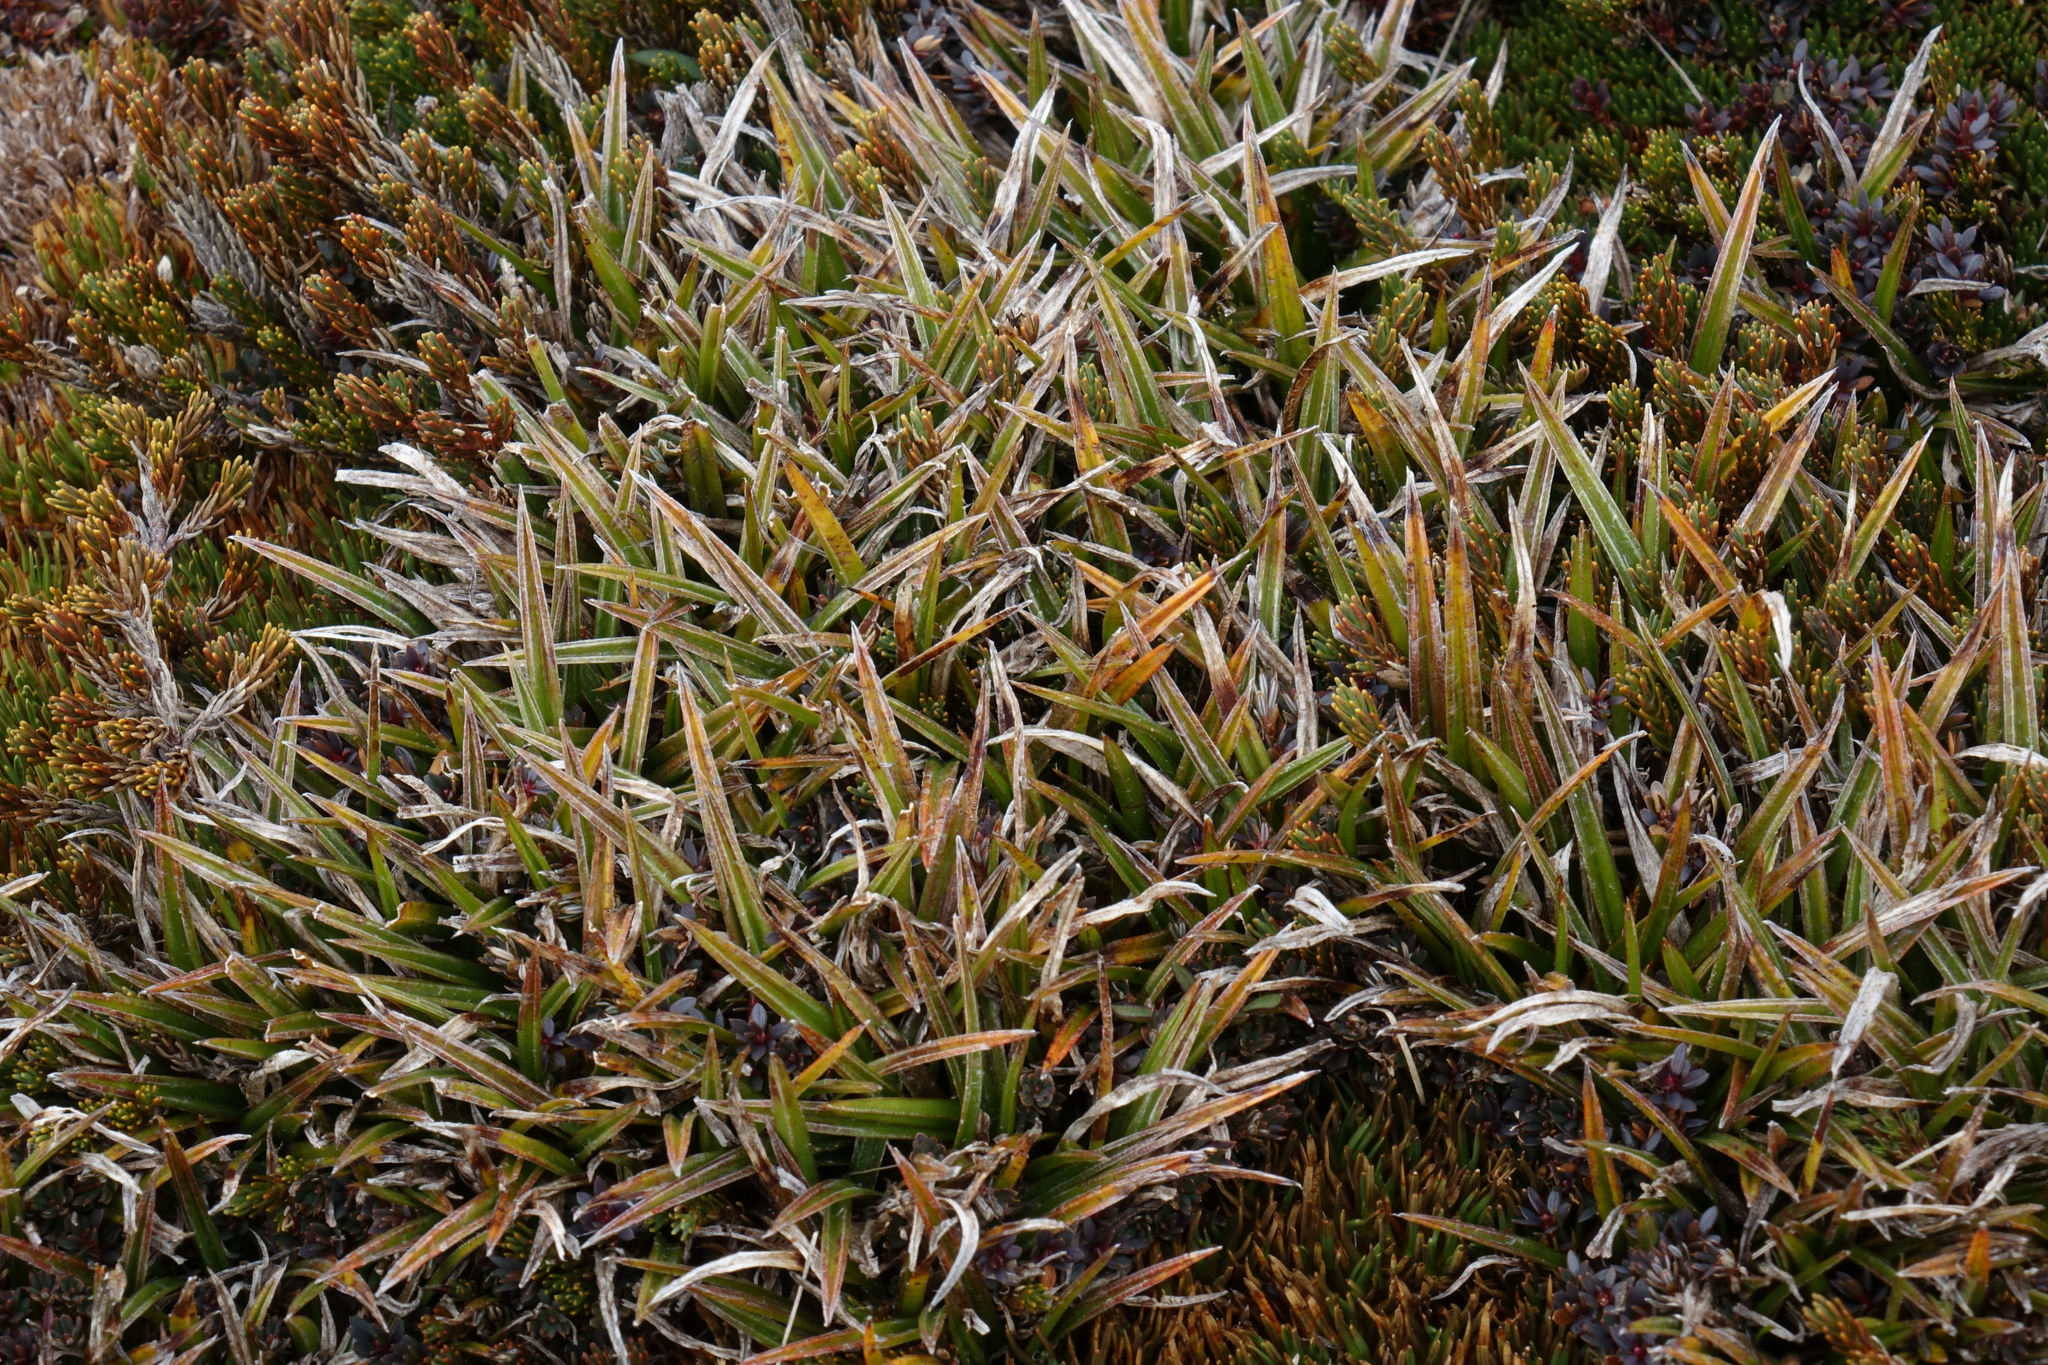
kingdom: Plantae
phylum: Tracheophyta
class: Liliopsida
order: Asparagales
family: Asteliaceae
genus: Astelia
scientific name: Astelia linearis
